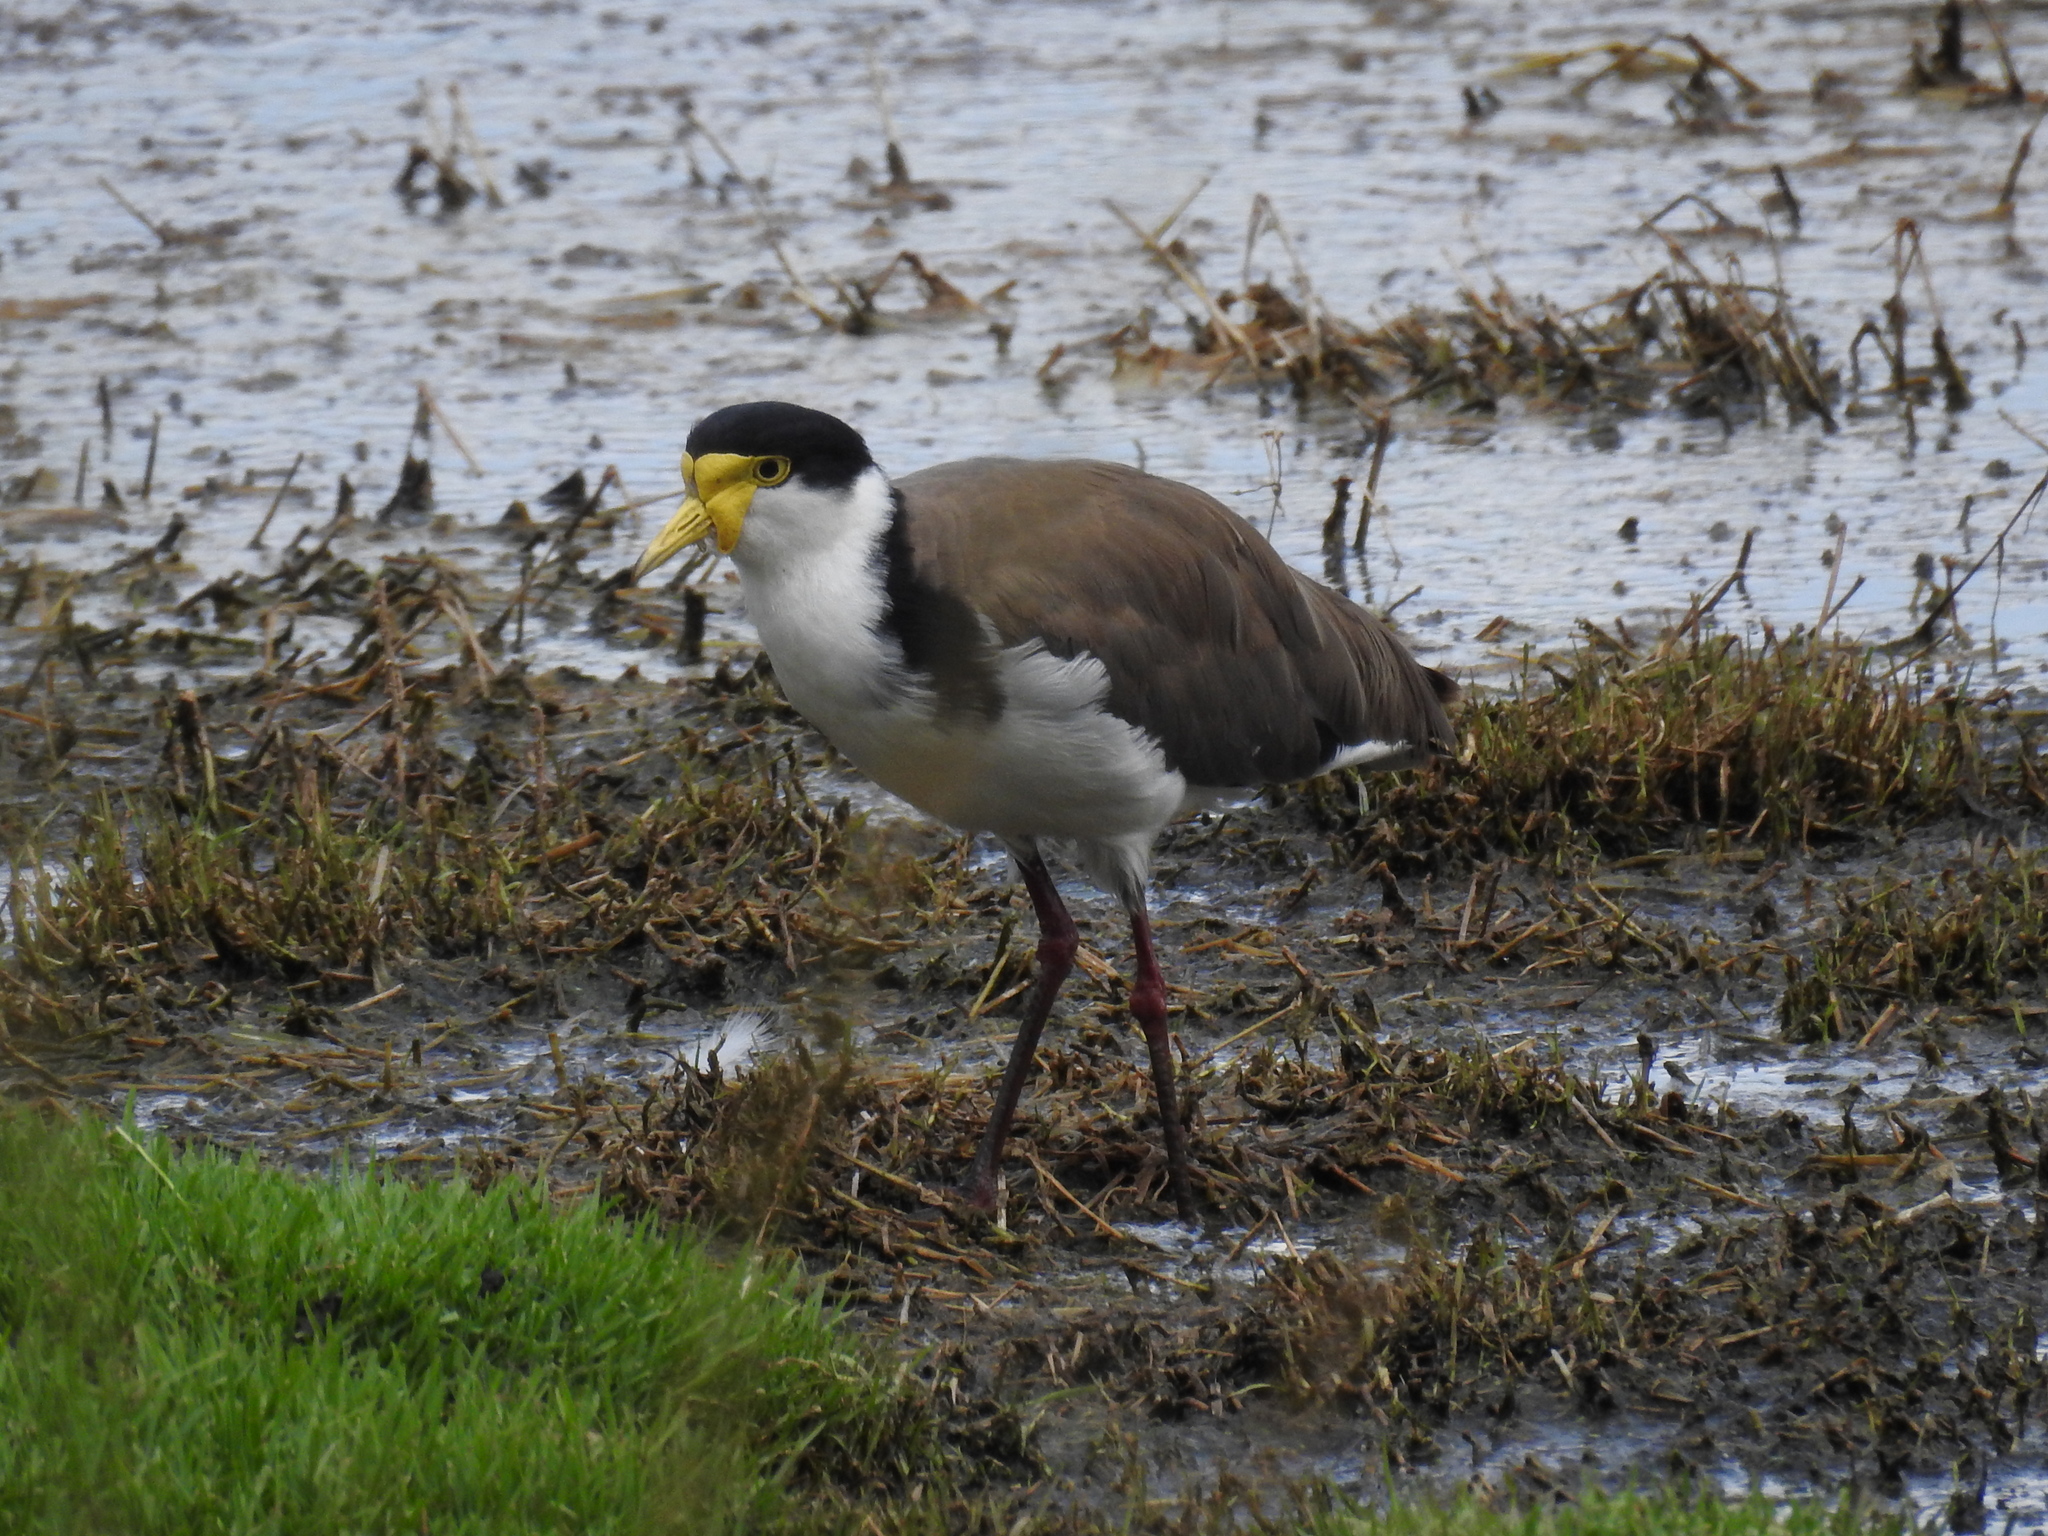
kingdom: Animalia
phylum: Chordata
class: Aves
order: Charadriiformes
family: Charadriidae
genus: Vanellus
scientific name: Vanellus miles
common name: Masked lapwing
